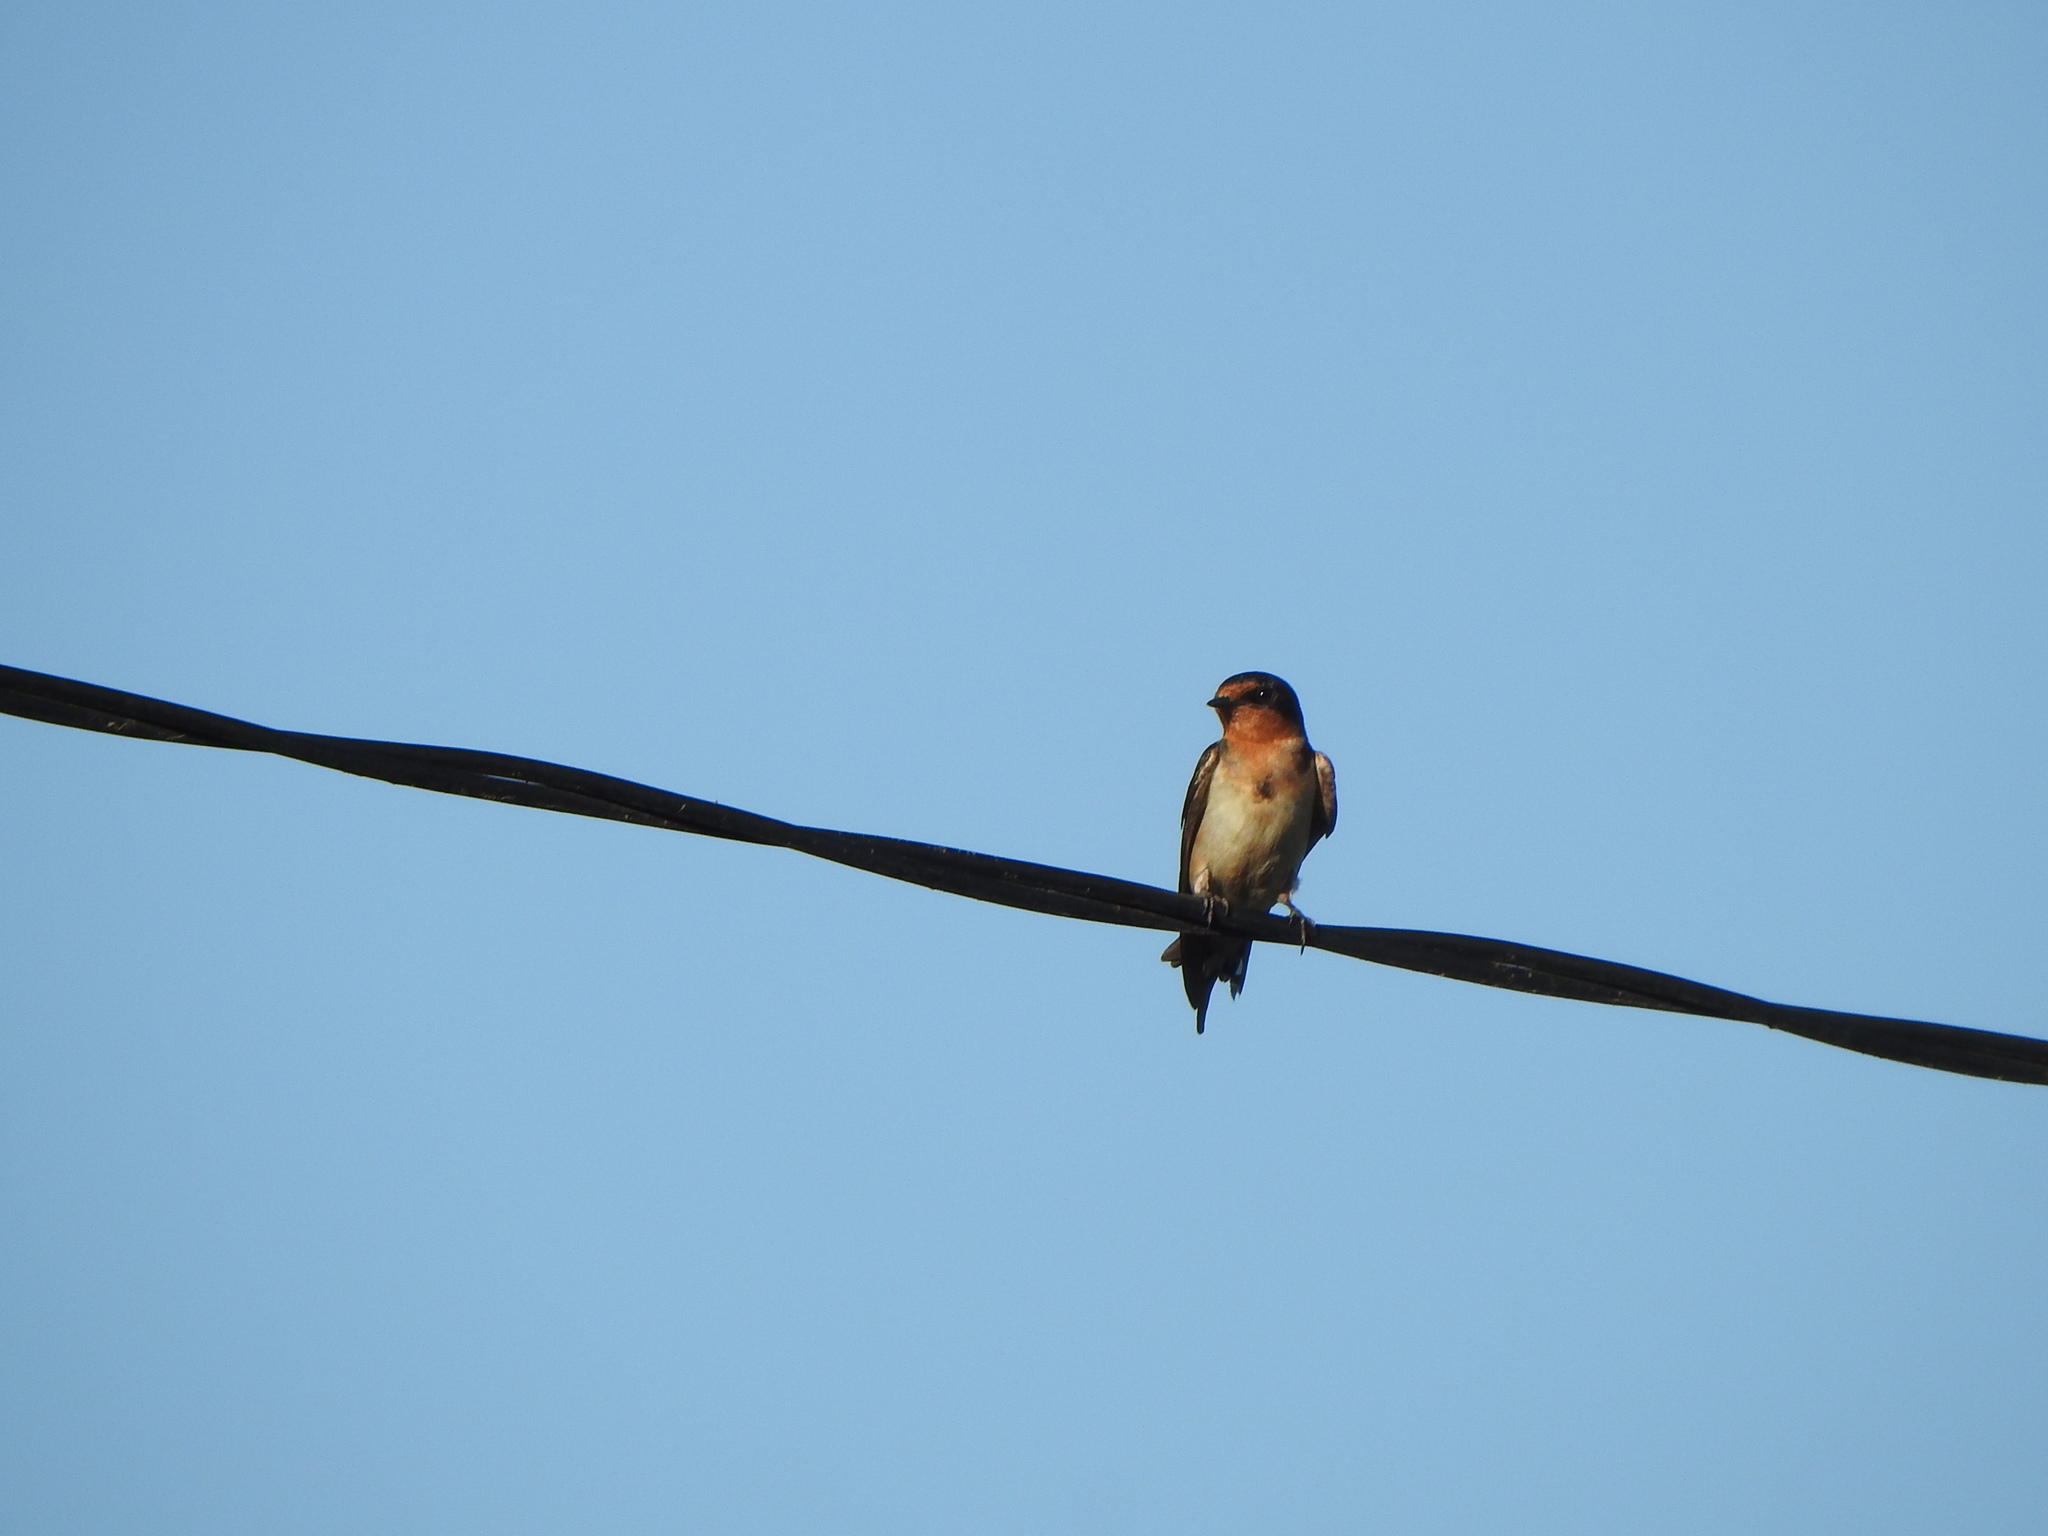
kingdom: Animalia
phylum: Chordata
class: Aves
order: Passeriformes
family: Hirundinidae
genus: Hirundo
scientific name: Hirundo rustica
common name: Barn swallow
